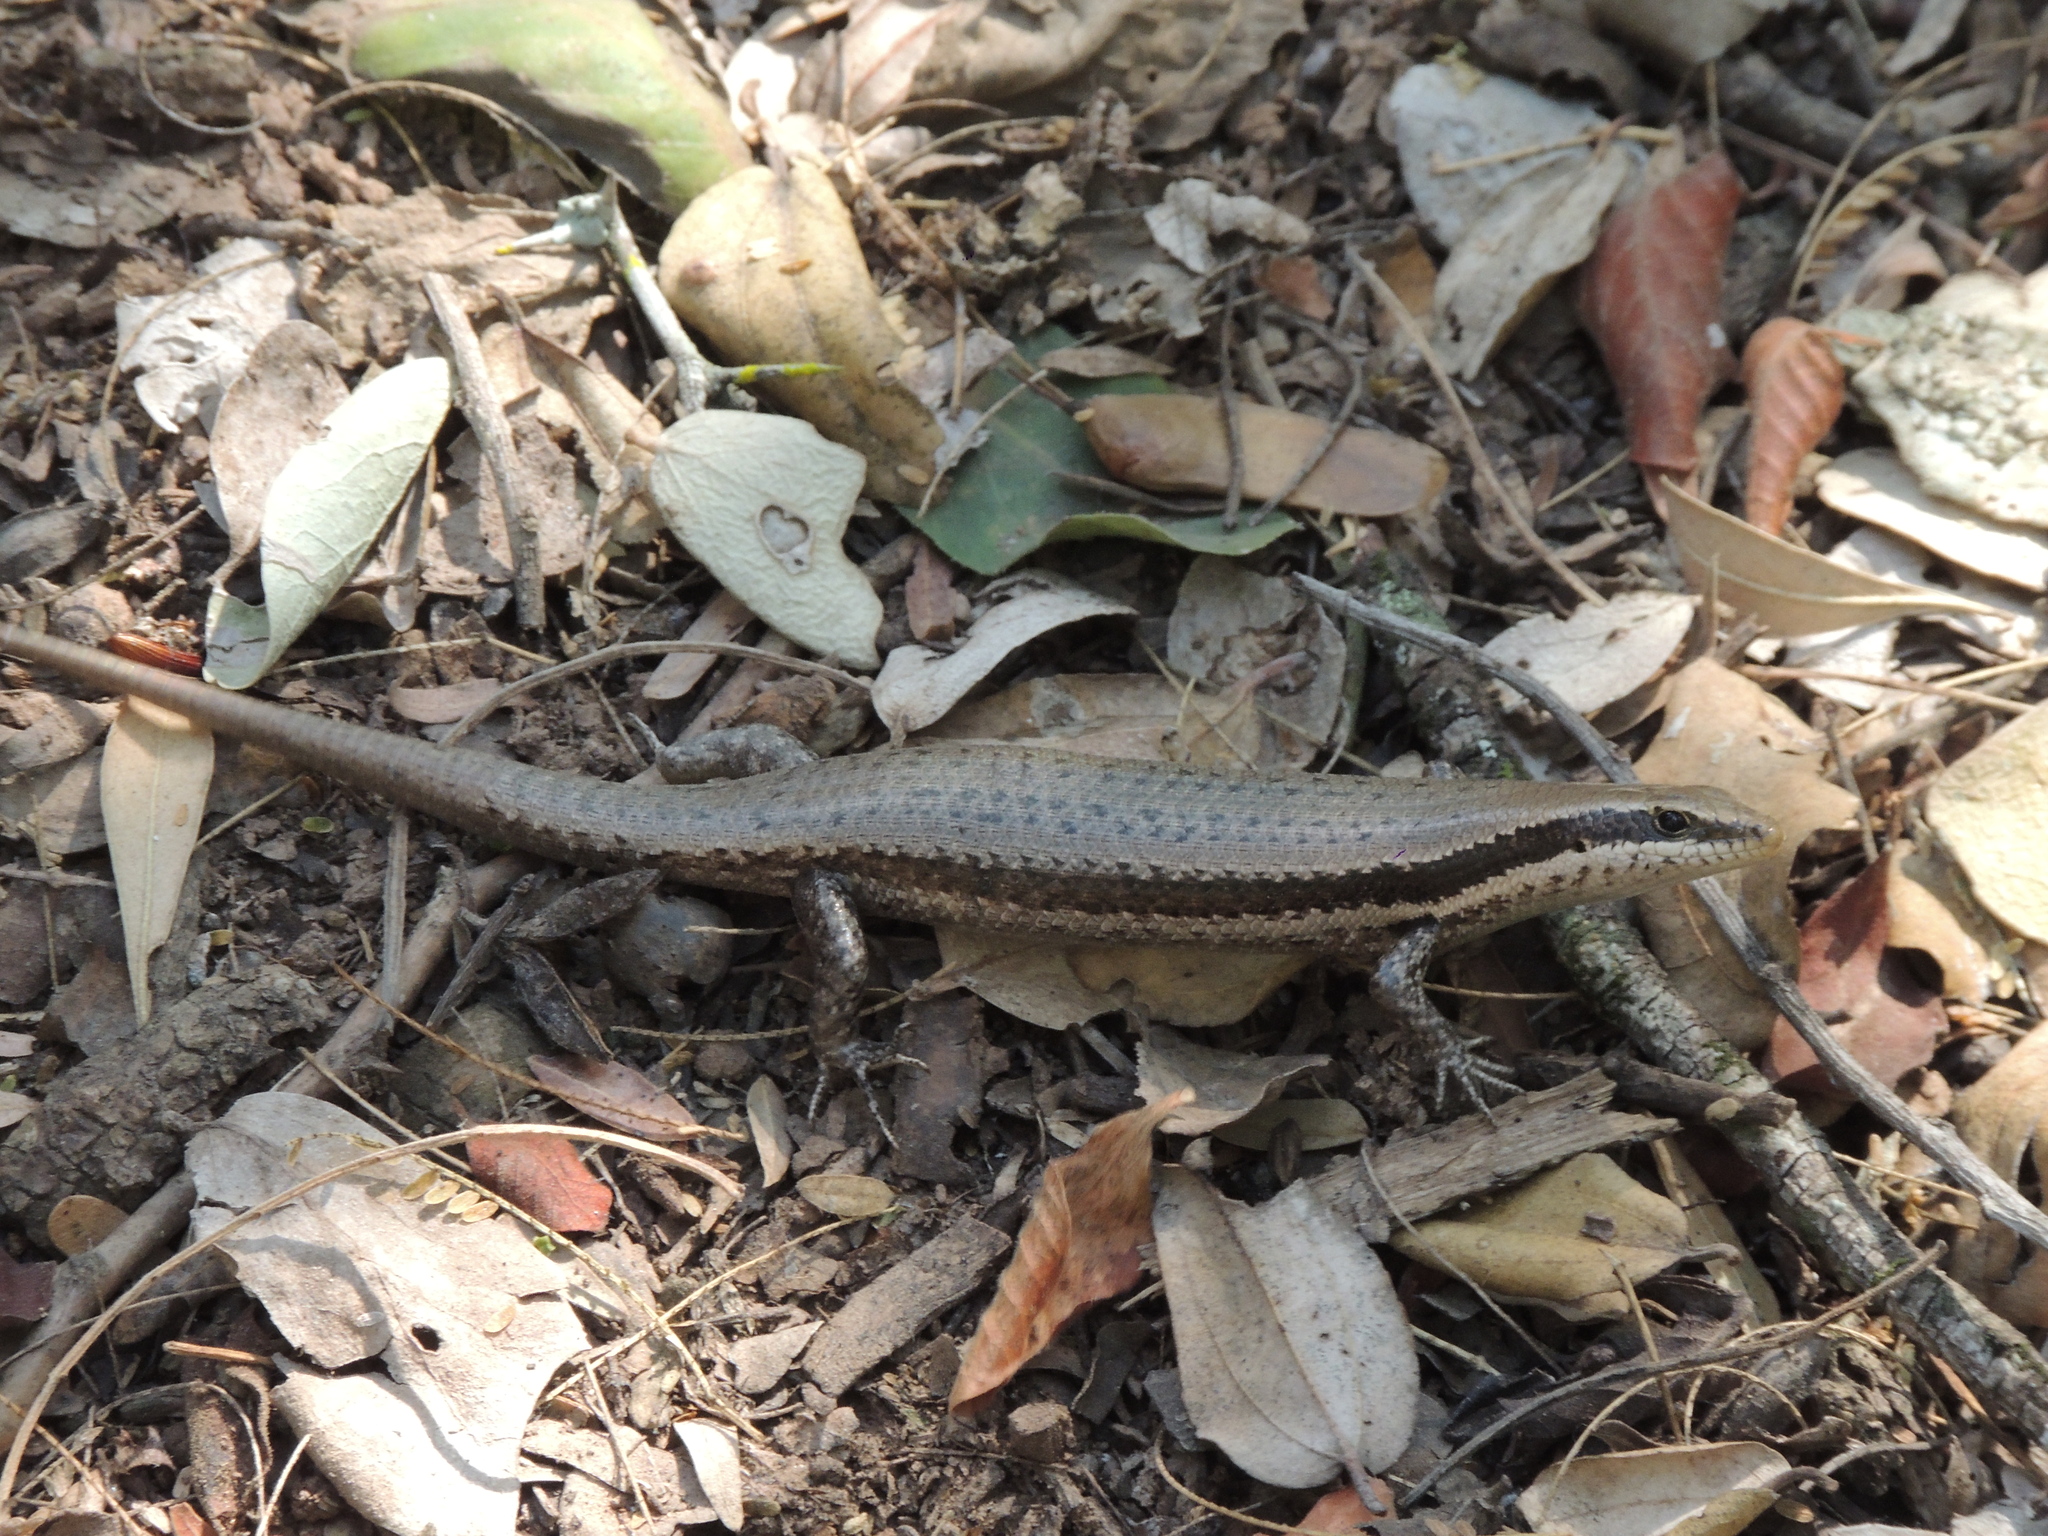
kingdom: Animalia
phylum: Chordata
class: Squamata
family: Scincidae
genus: Notomabuya
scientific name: Notomabuya frenata
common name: Cope's mabuya
